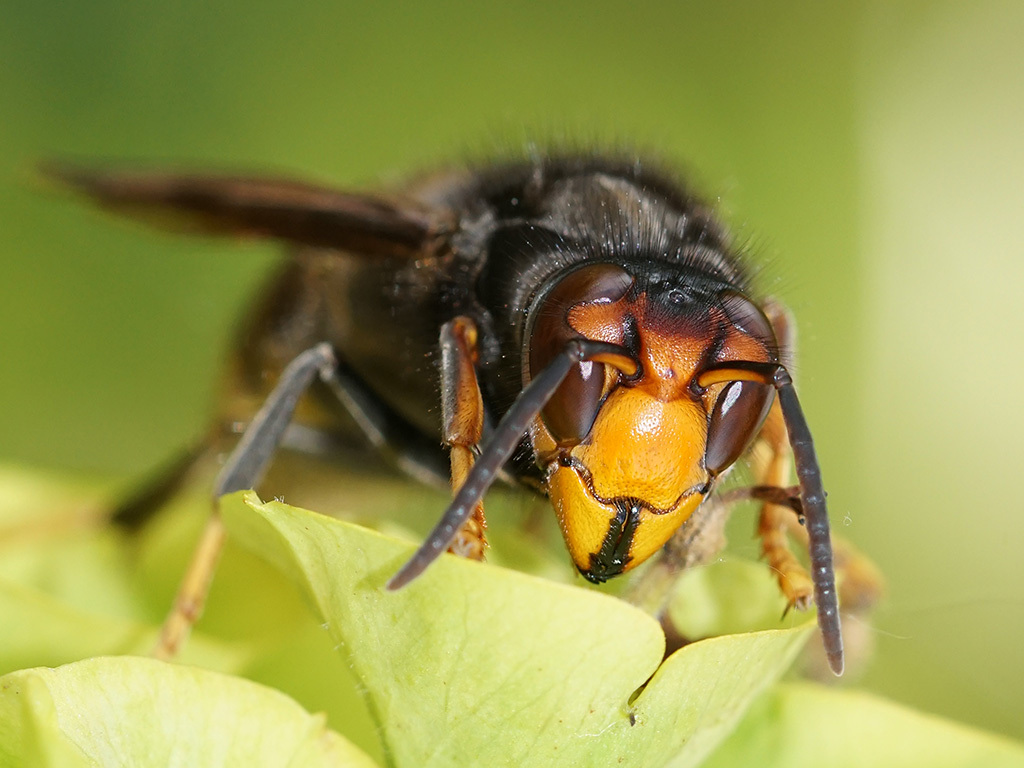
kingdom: Animalia
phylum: Arthropoda
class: Insecta
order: Hymenoptera
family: Vespidae
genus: Vespa
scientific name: Vespa velutina
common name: Asian hornet
